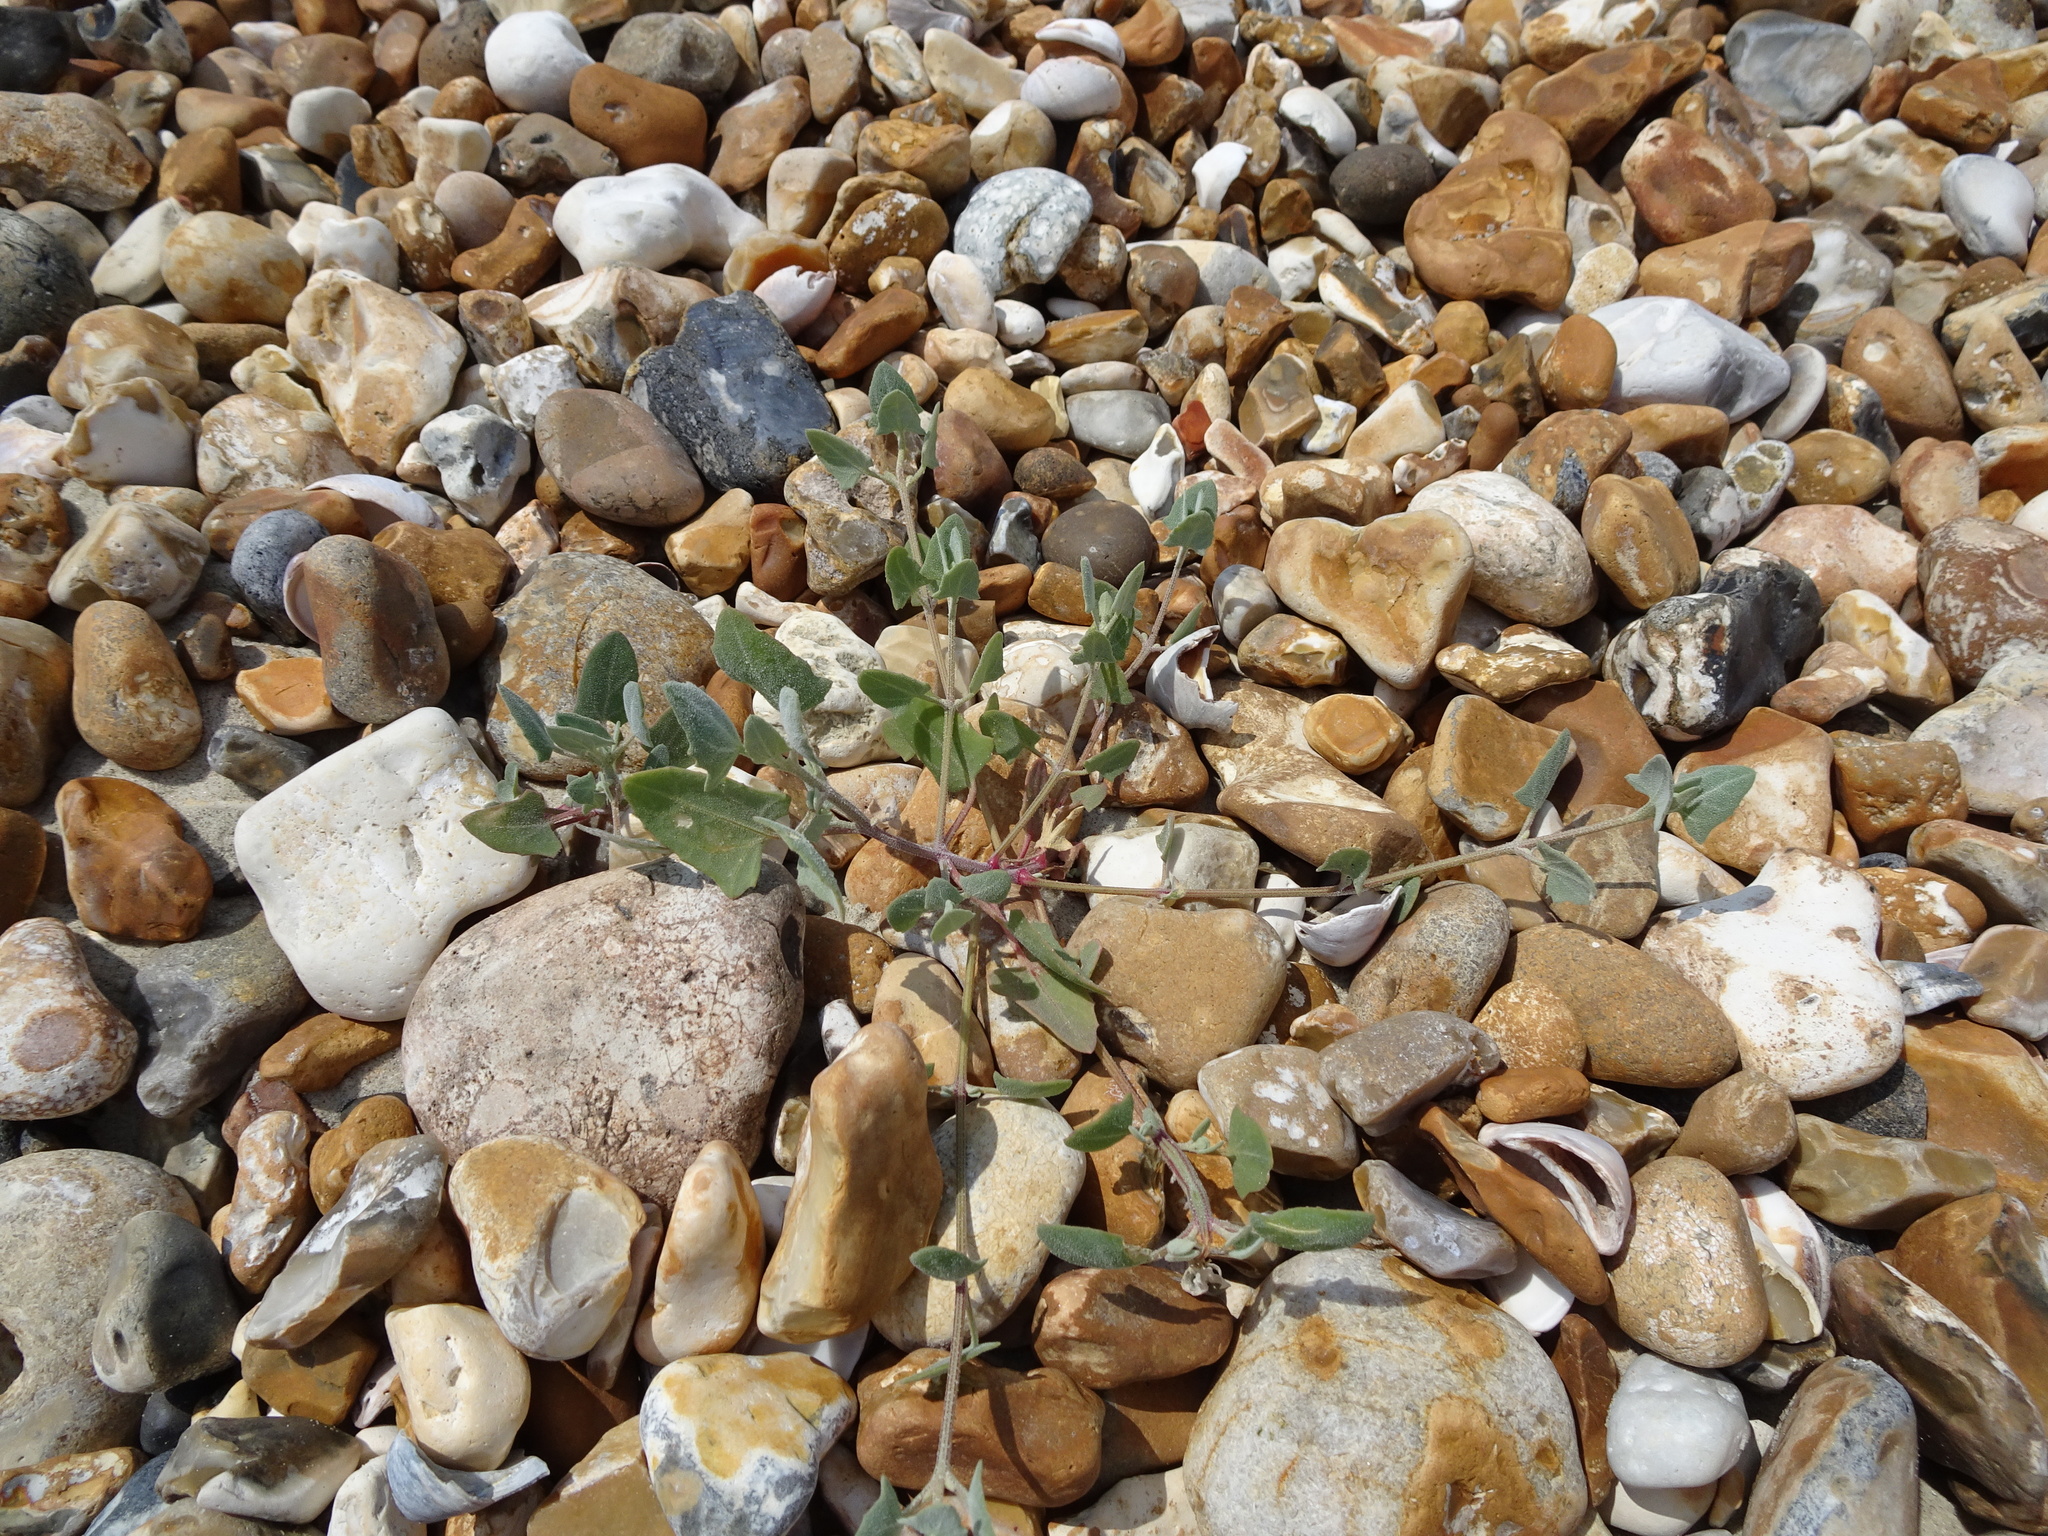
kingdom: Plantae
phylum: Tracheophyta
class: Magnoliopsida
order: Caryophyllales
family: Amaranthaceae
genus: Atriplex
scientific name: Atriplex prostrata
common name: Spear-leaved orache
